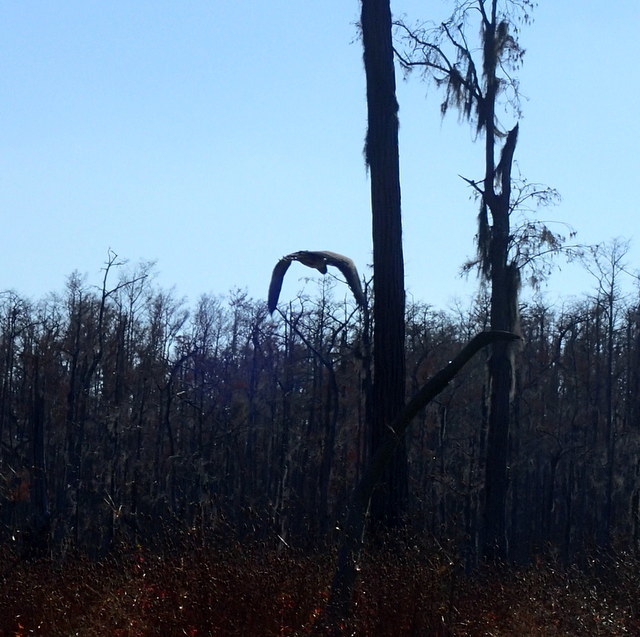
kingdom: Animalia
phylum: Chordata
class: Aves
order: Pelecaniformes
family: Ardeidae
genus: Ardea
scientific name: Ardea herodias
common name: Great blue heron
